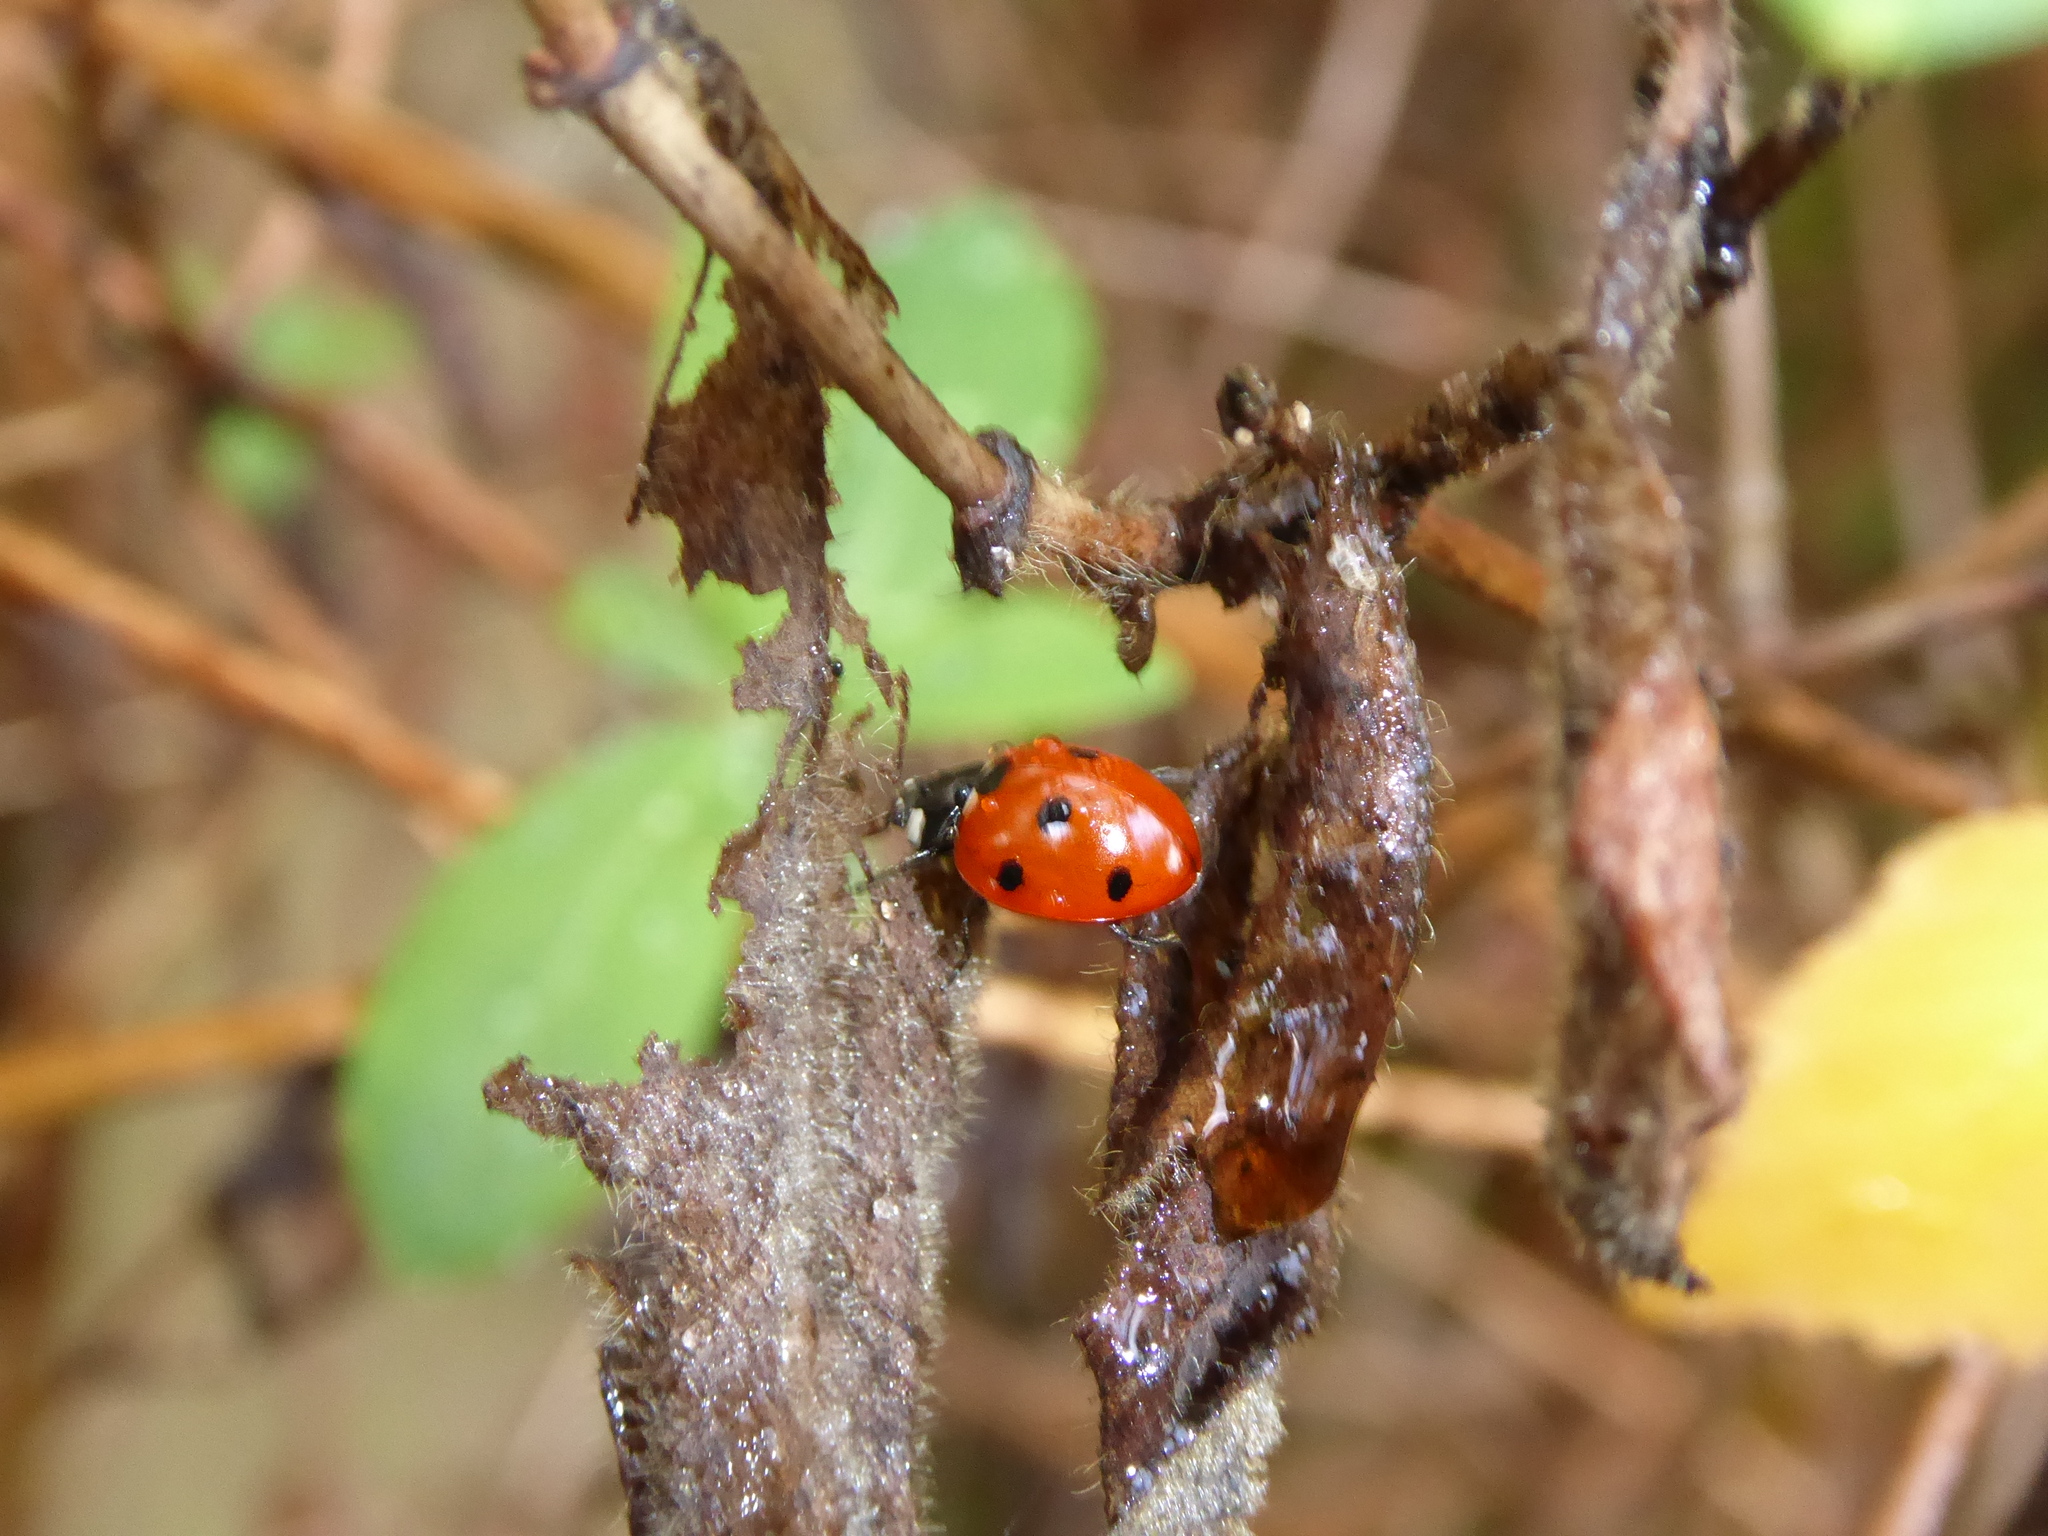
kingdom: Animalia
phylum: Arthropoda
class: Insecta
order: Coleoptera
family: Coccinellidae
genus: Coccinella
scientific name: Coccinella septempunctata
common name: Sevenspotted lady beetle
